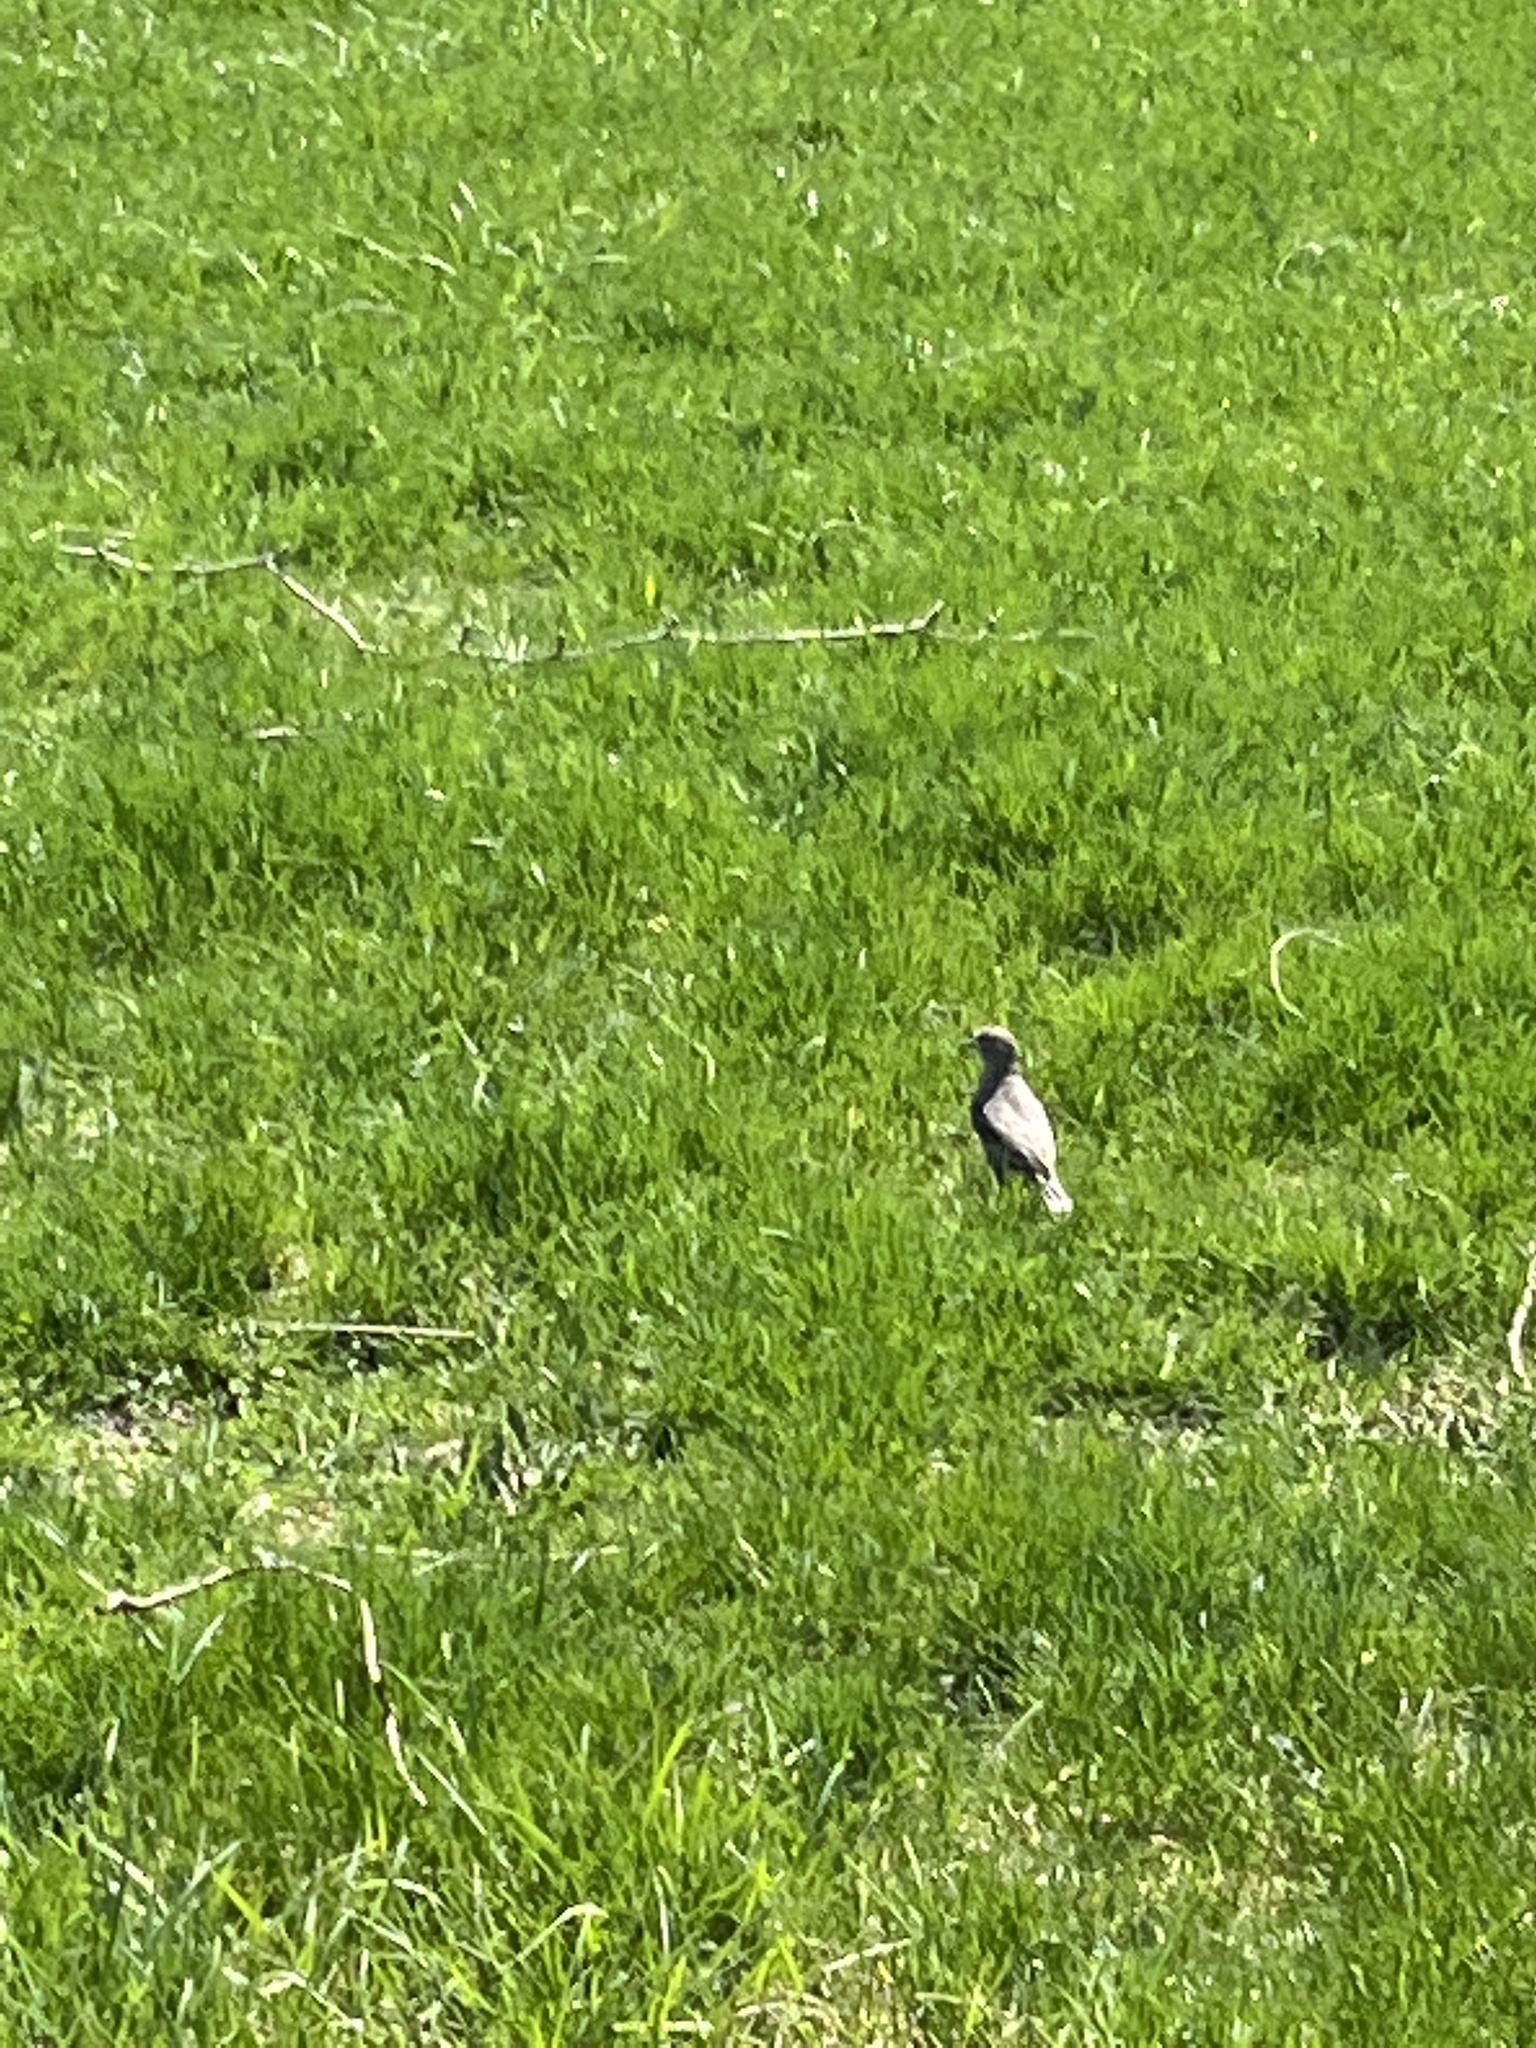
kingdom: Animalia
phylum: Chordata
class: Aves
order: Passeriformes
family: Icteridae
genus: Molothrus
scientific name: Molothrus ater
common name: Brown-headed cowbird
